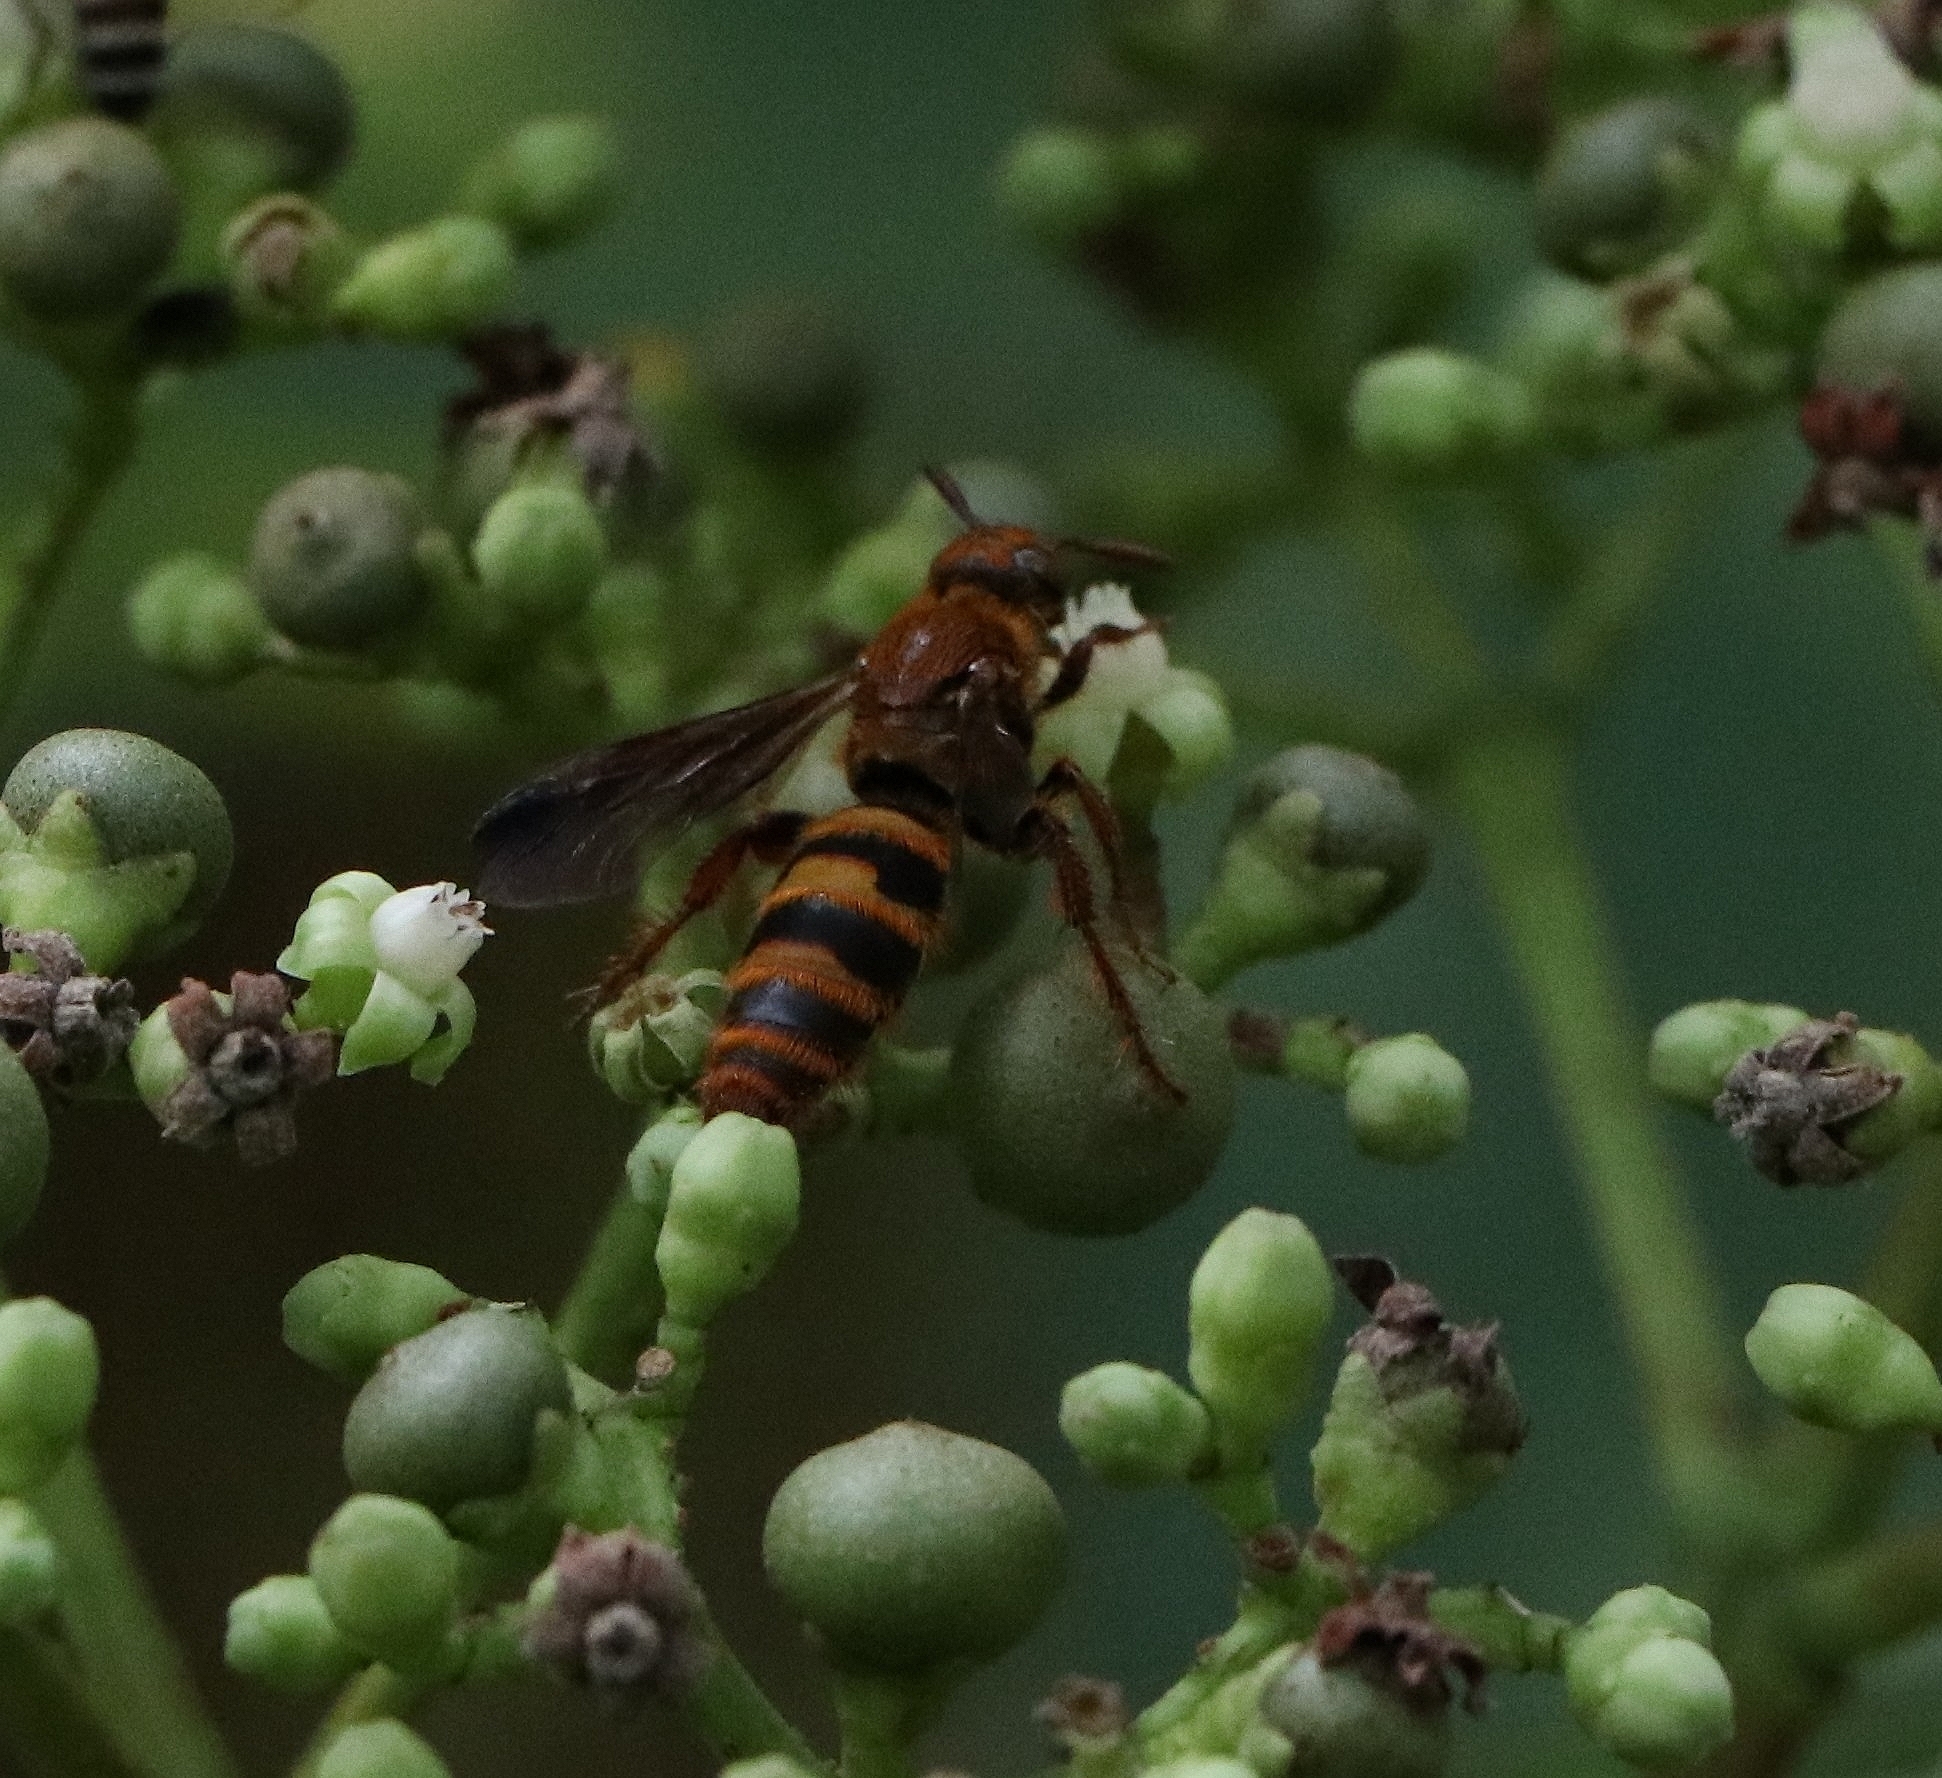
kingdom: Animalia
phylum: Arthropoda
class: Insecta
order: Hymenoptera
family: Scoliidae
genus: Campsomeris
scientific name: Campsomeris phalerata
